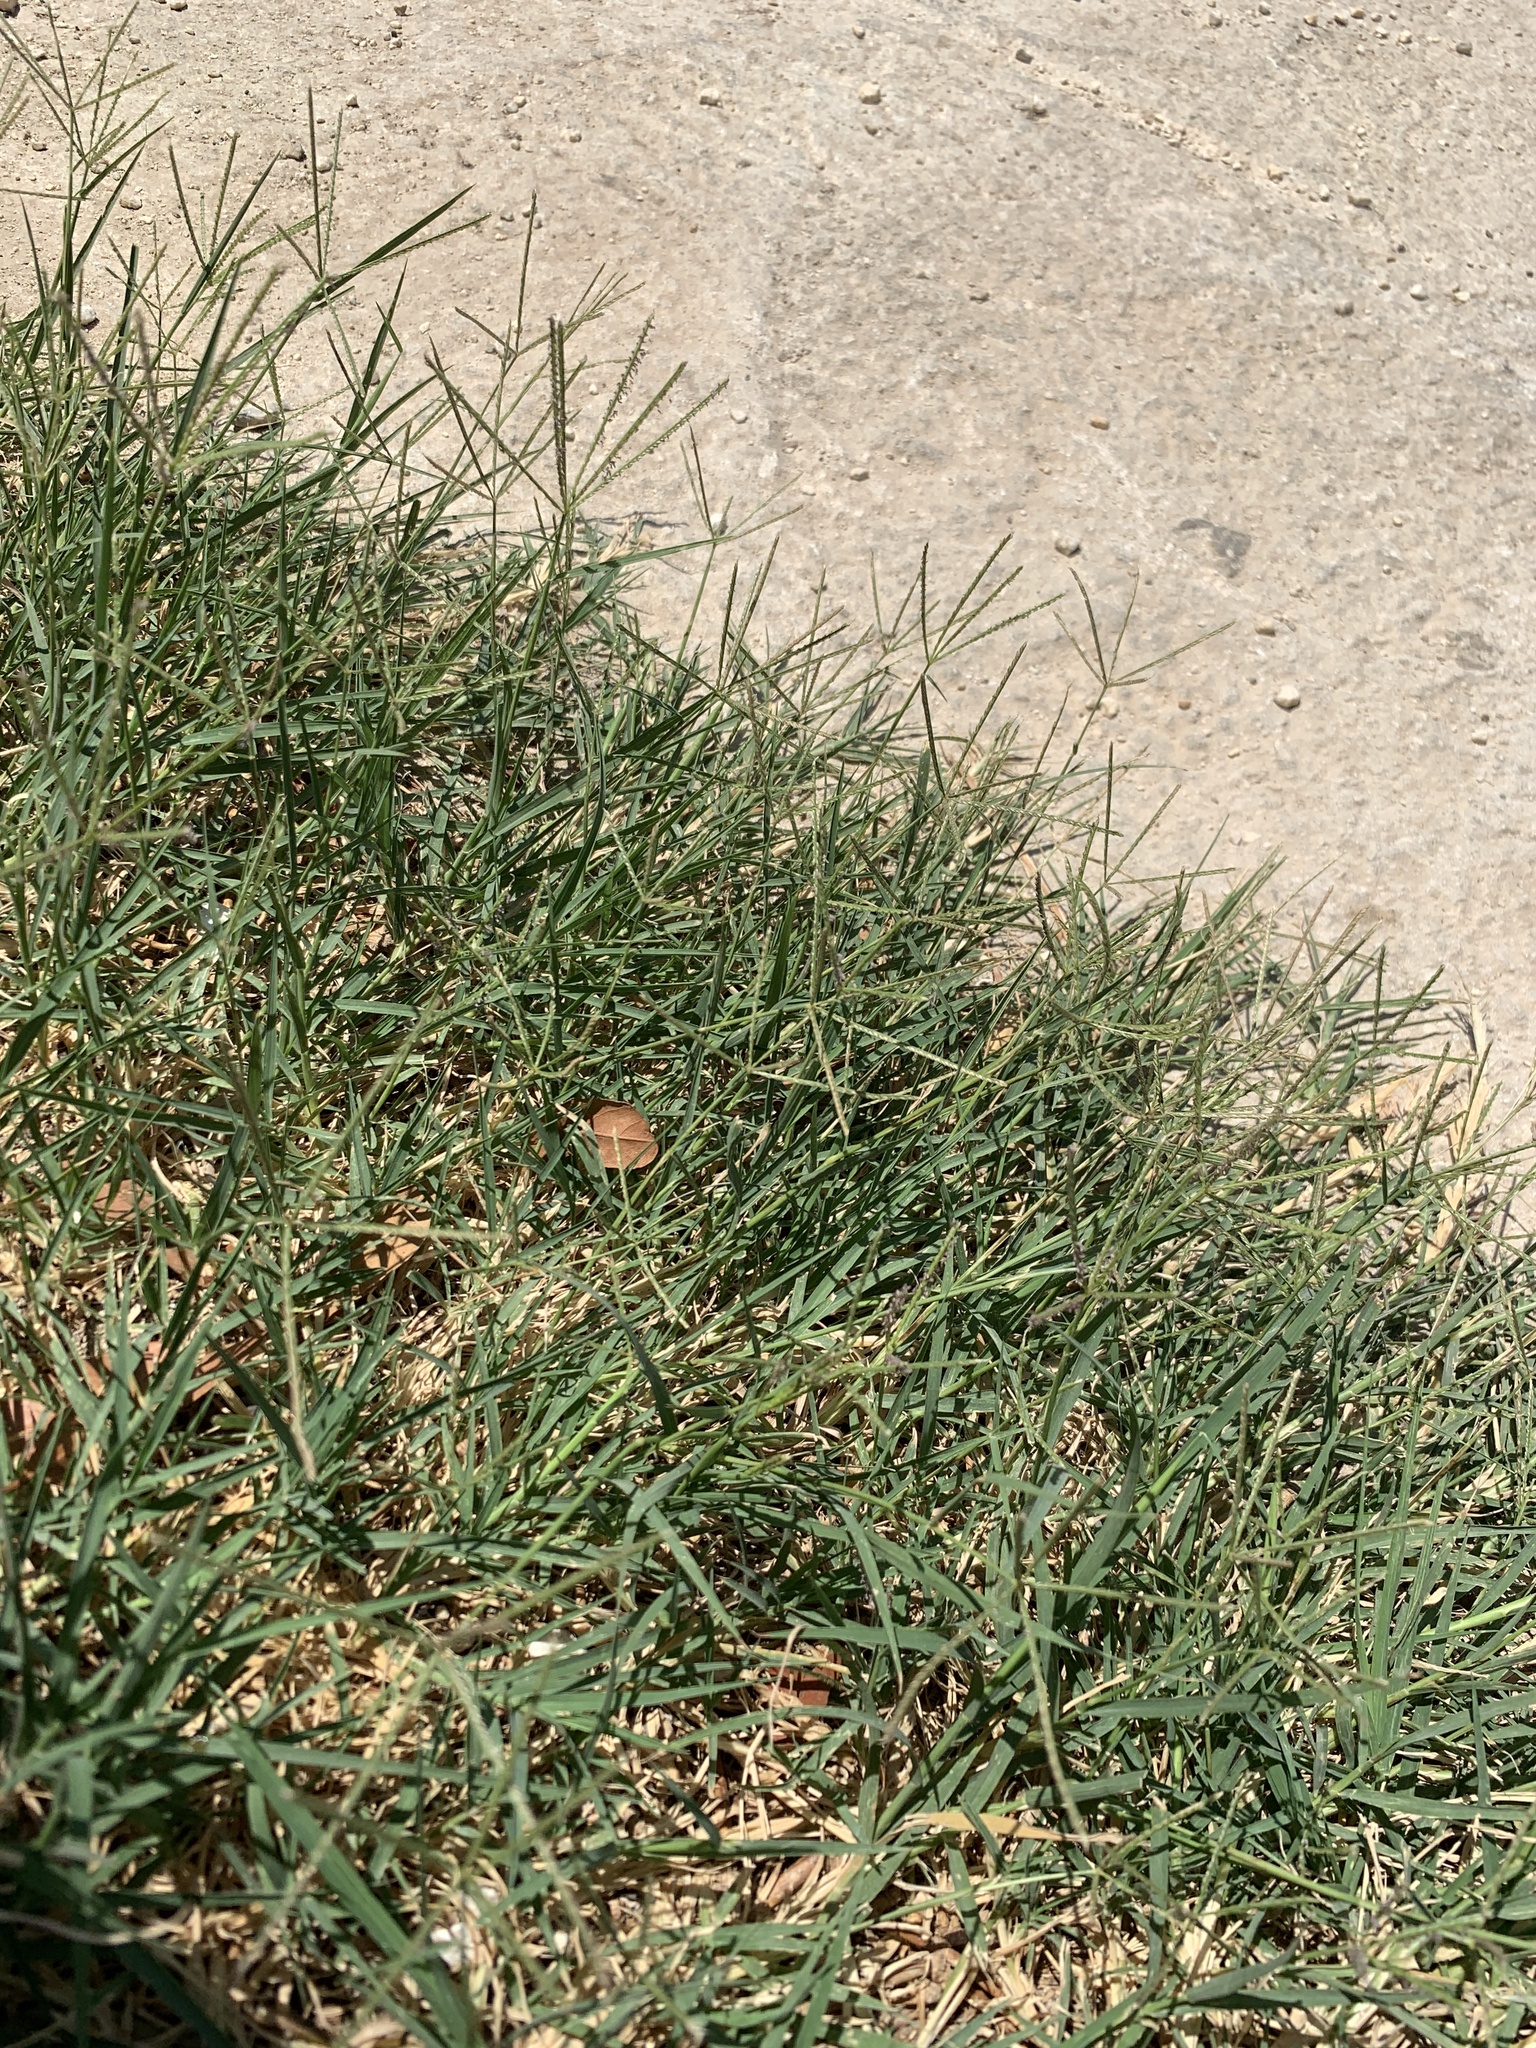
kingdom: Plantae
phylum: Tracheophyta
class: Liliopsida
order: Poales
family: Poaceae
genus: Cynodon
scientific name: Cynodon dactylon
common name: Bermuda grass
